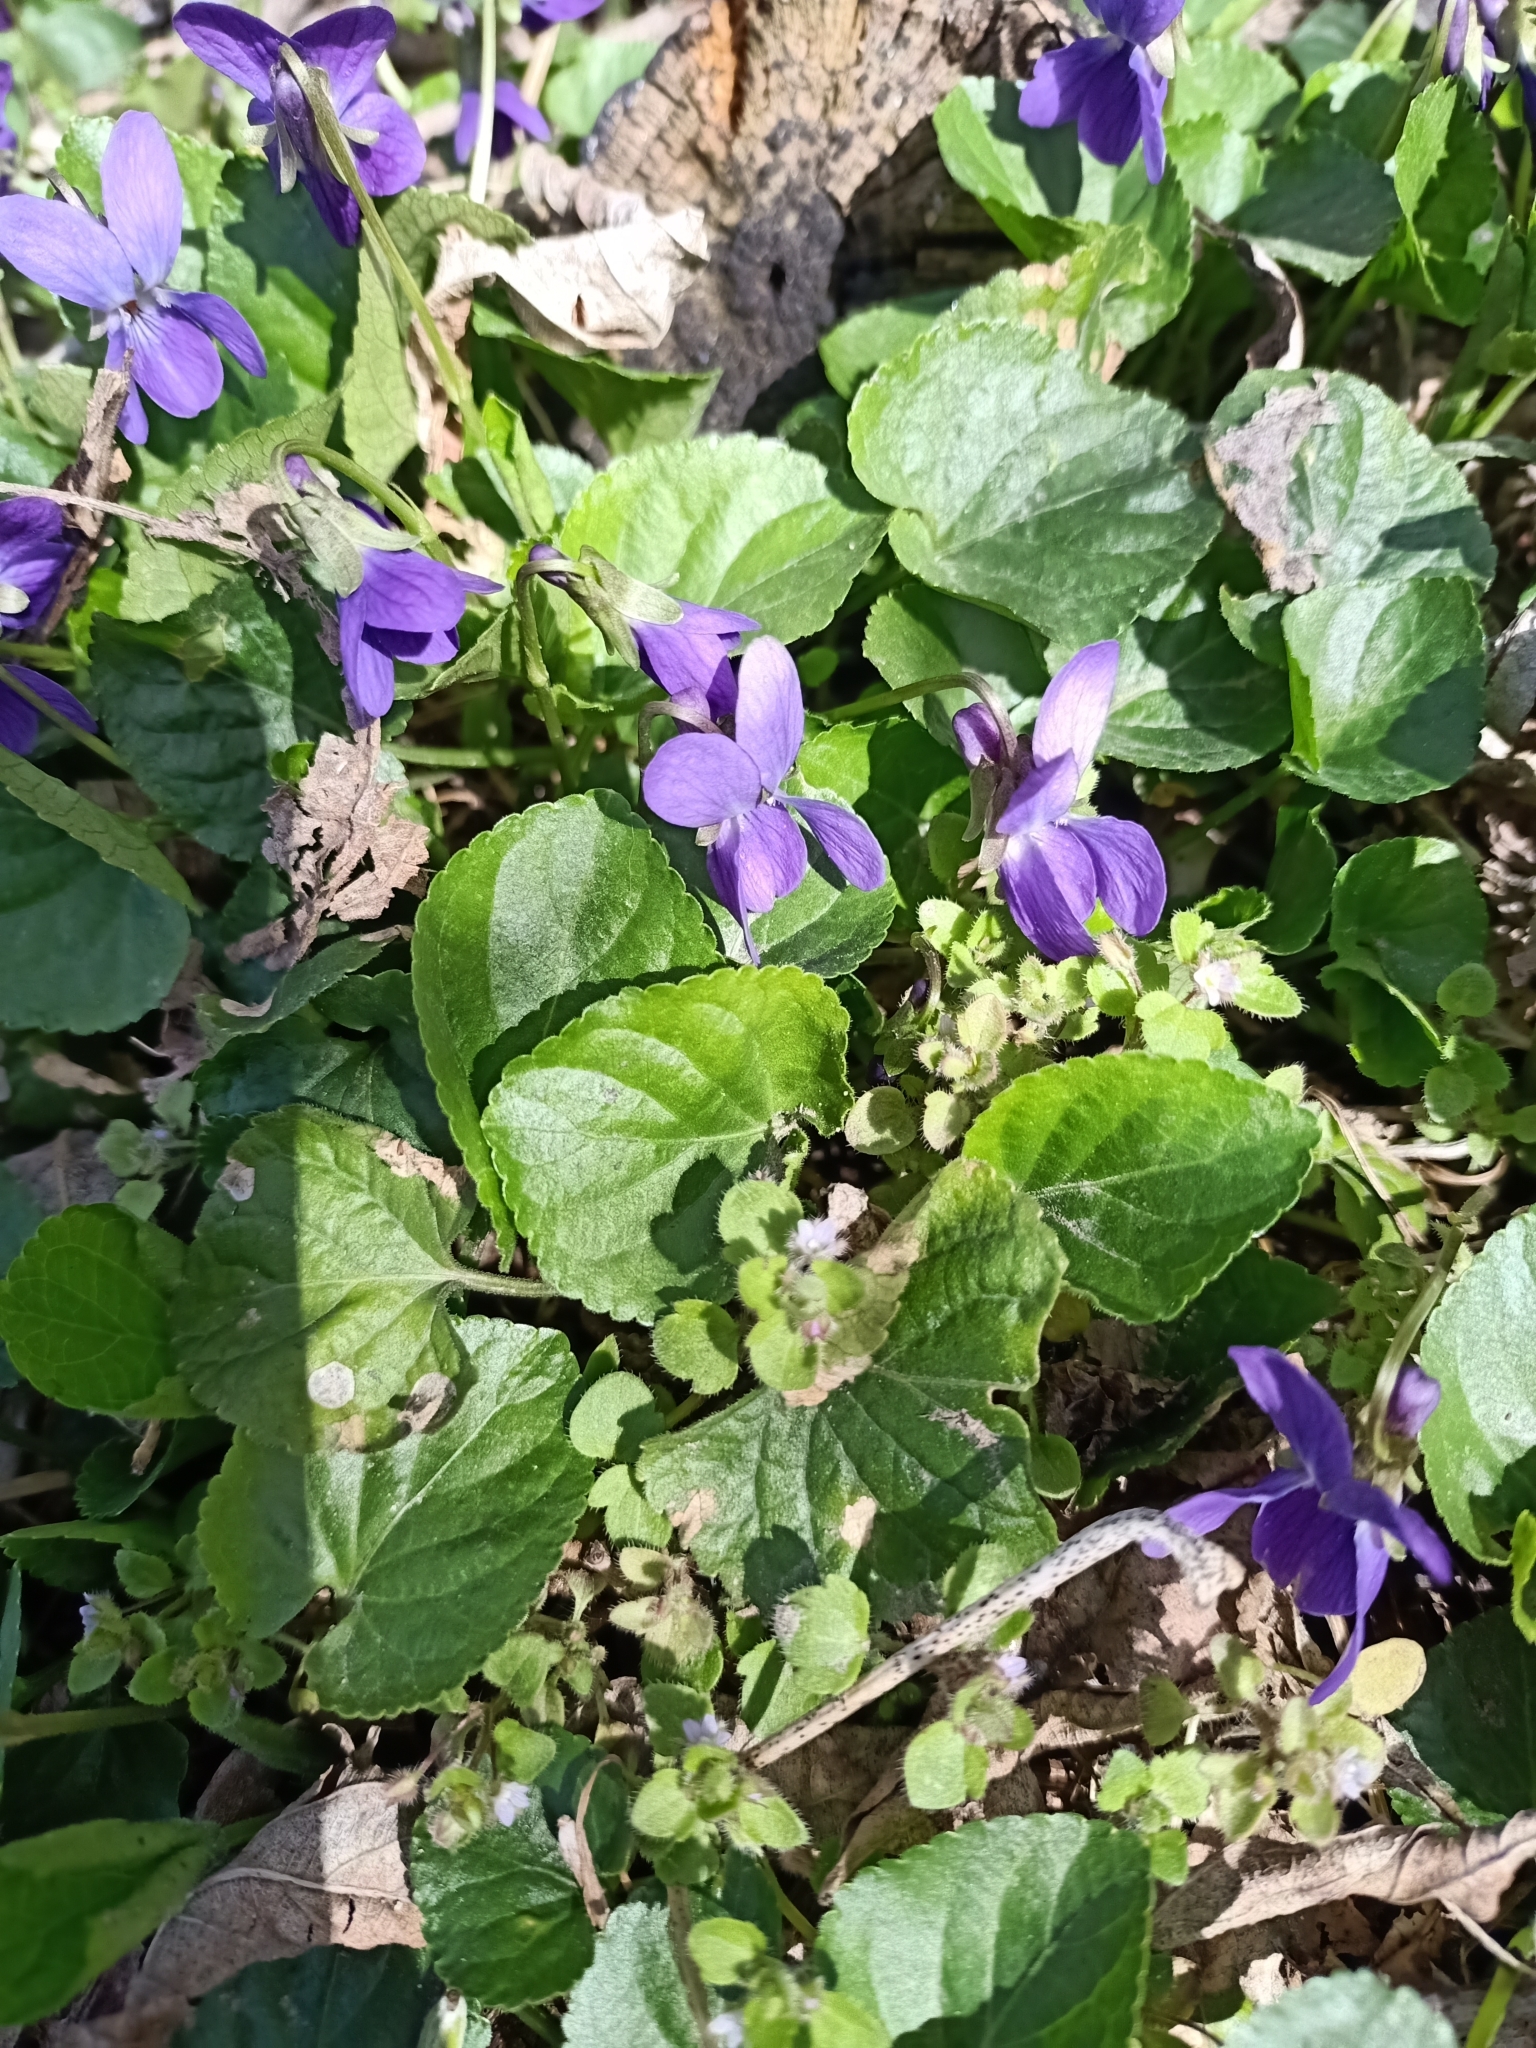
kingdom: Plantae
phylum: Tracheophyta
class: Magnoliopsida
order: Malpighiales
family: Violaceae
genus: Viola
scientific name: Viola odorata
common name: Sweet violet
